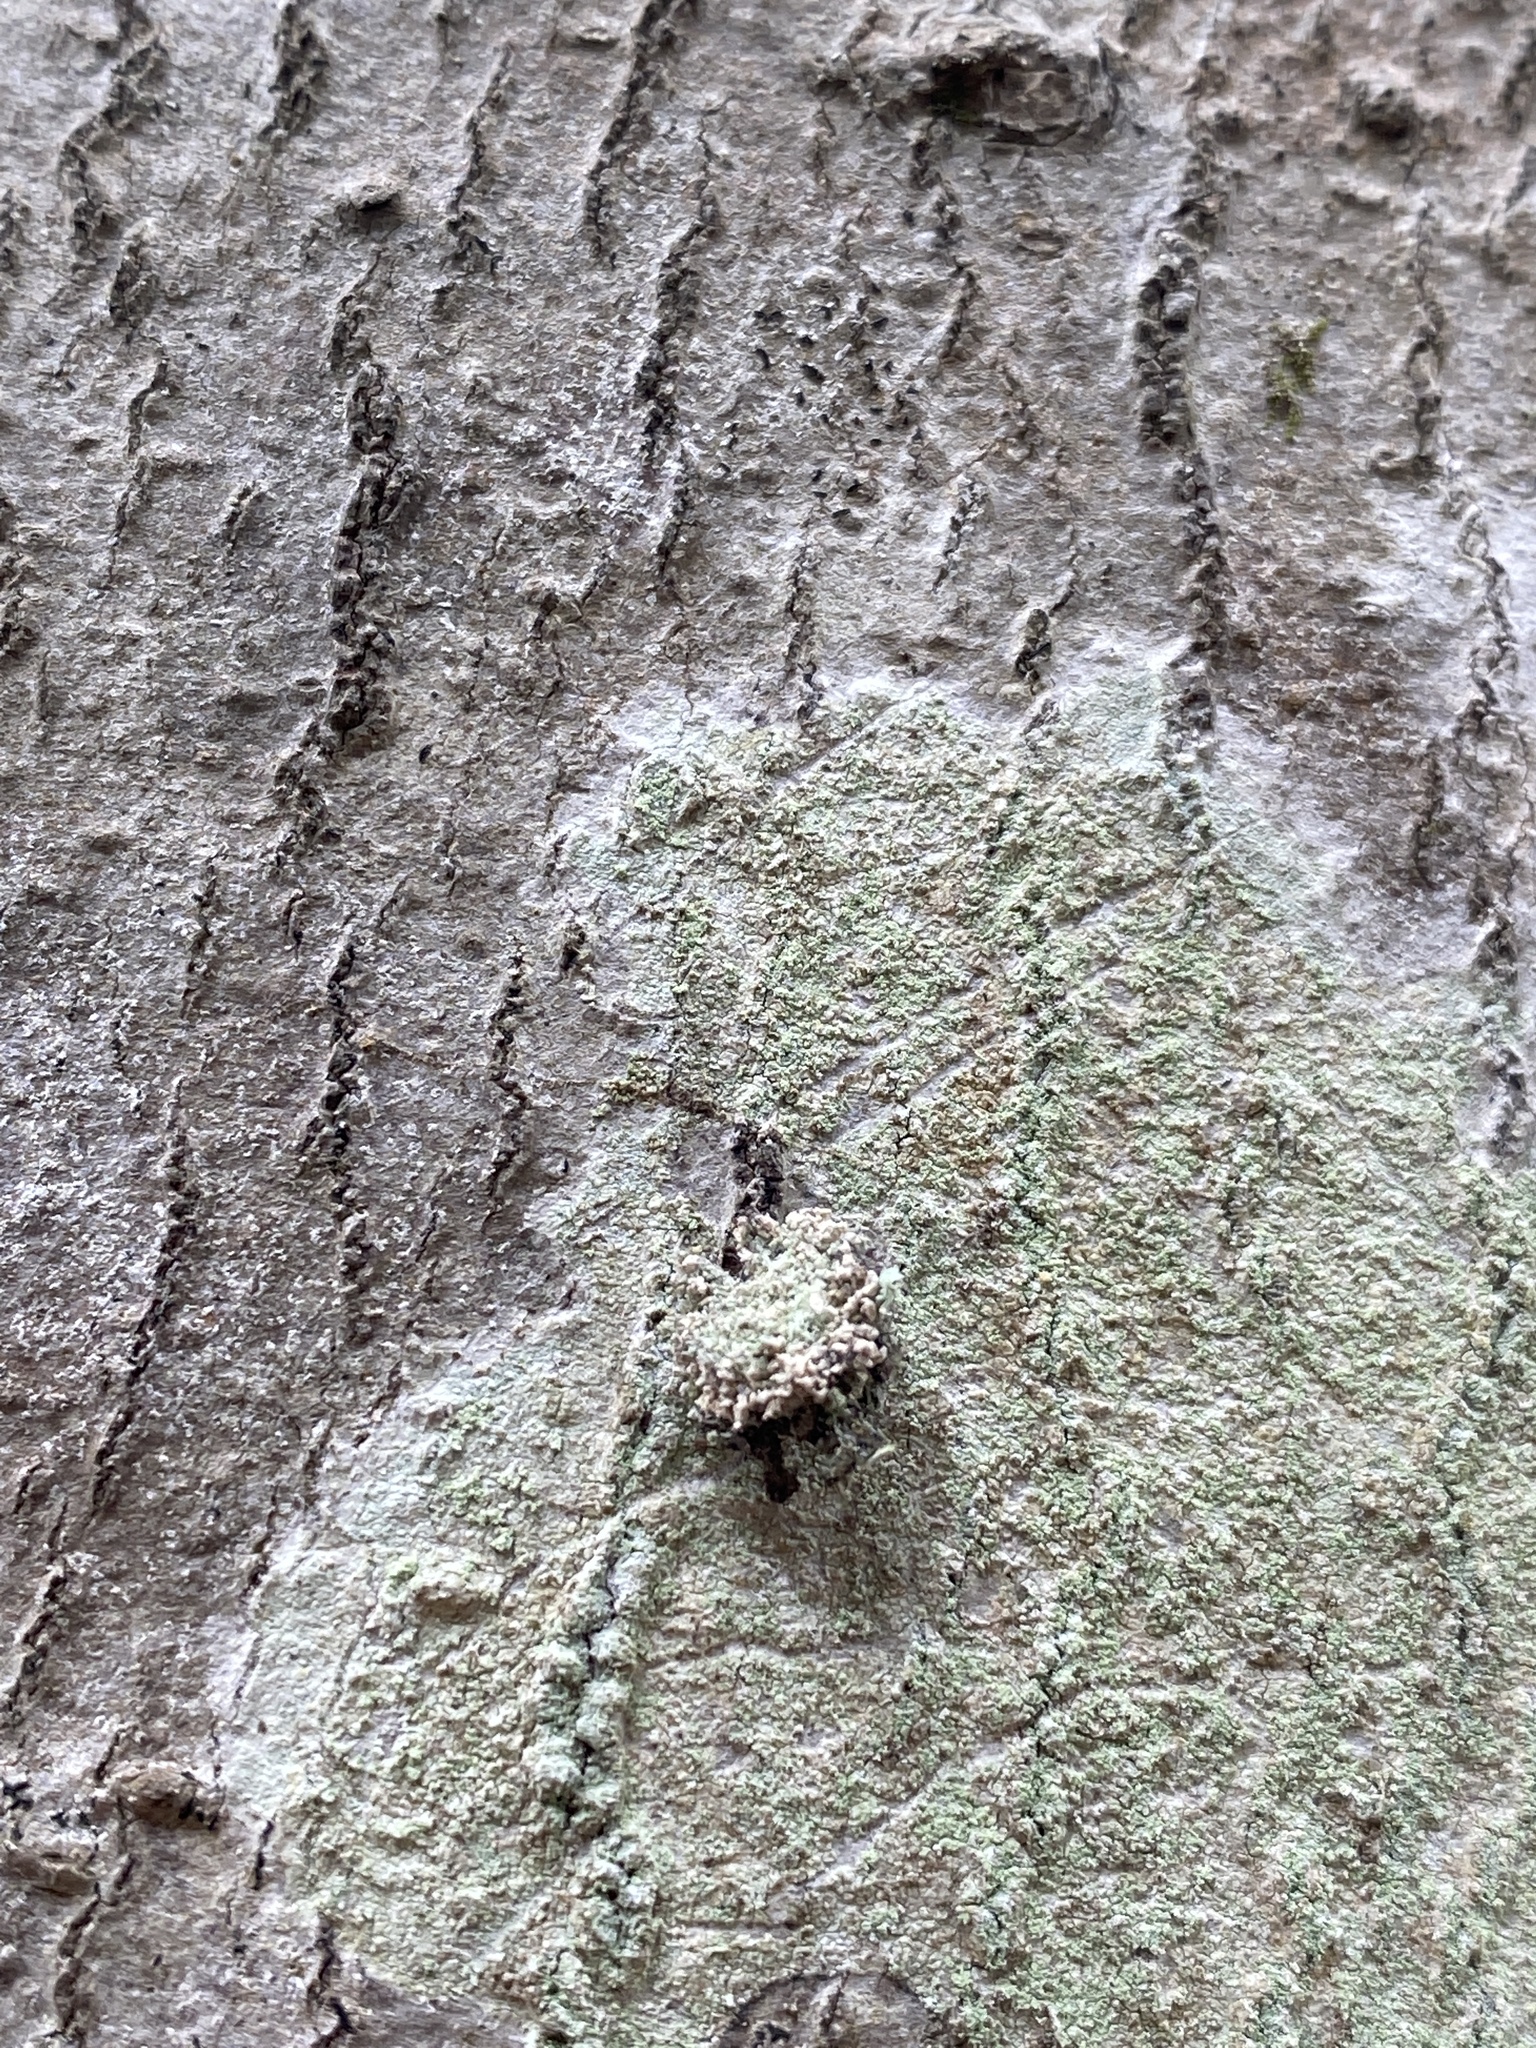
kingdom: Animalia
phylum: Arthropoda
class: Insecta
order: Neuroptera
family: Chrysopidae
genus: Leucochrysa
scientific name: Leucochrysa pavida
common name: Lichen-carrying green lacewing
